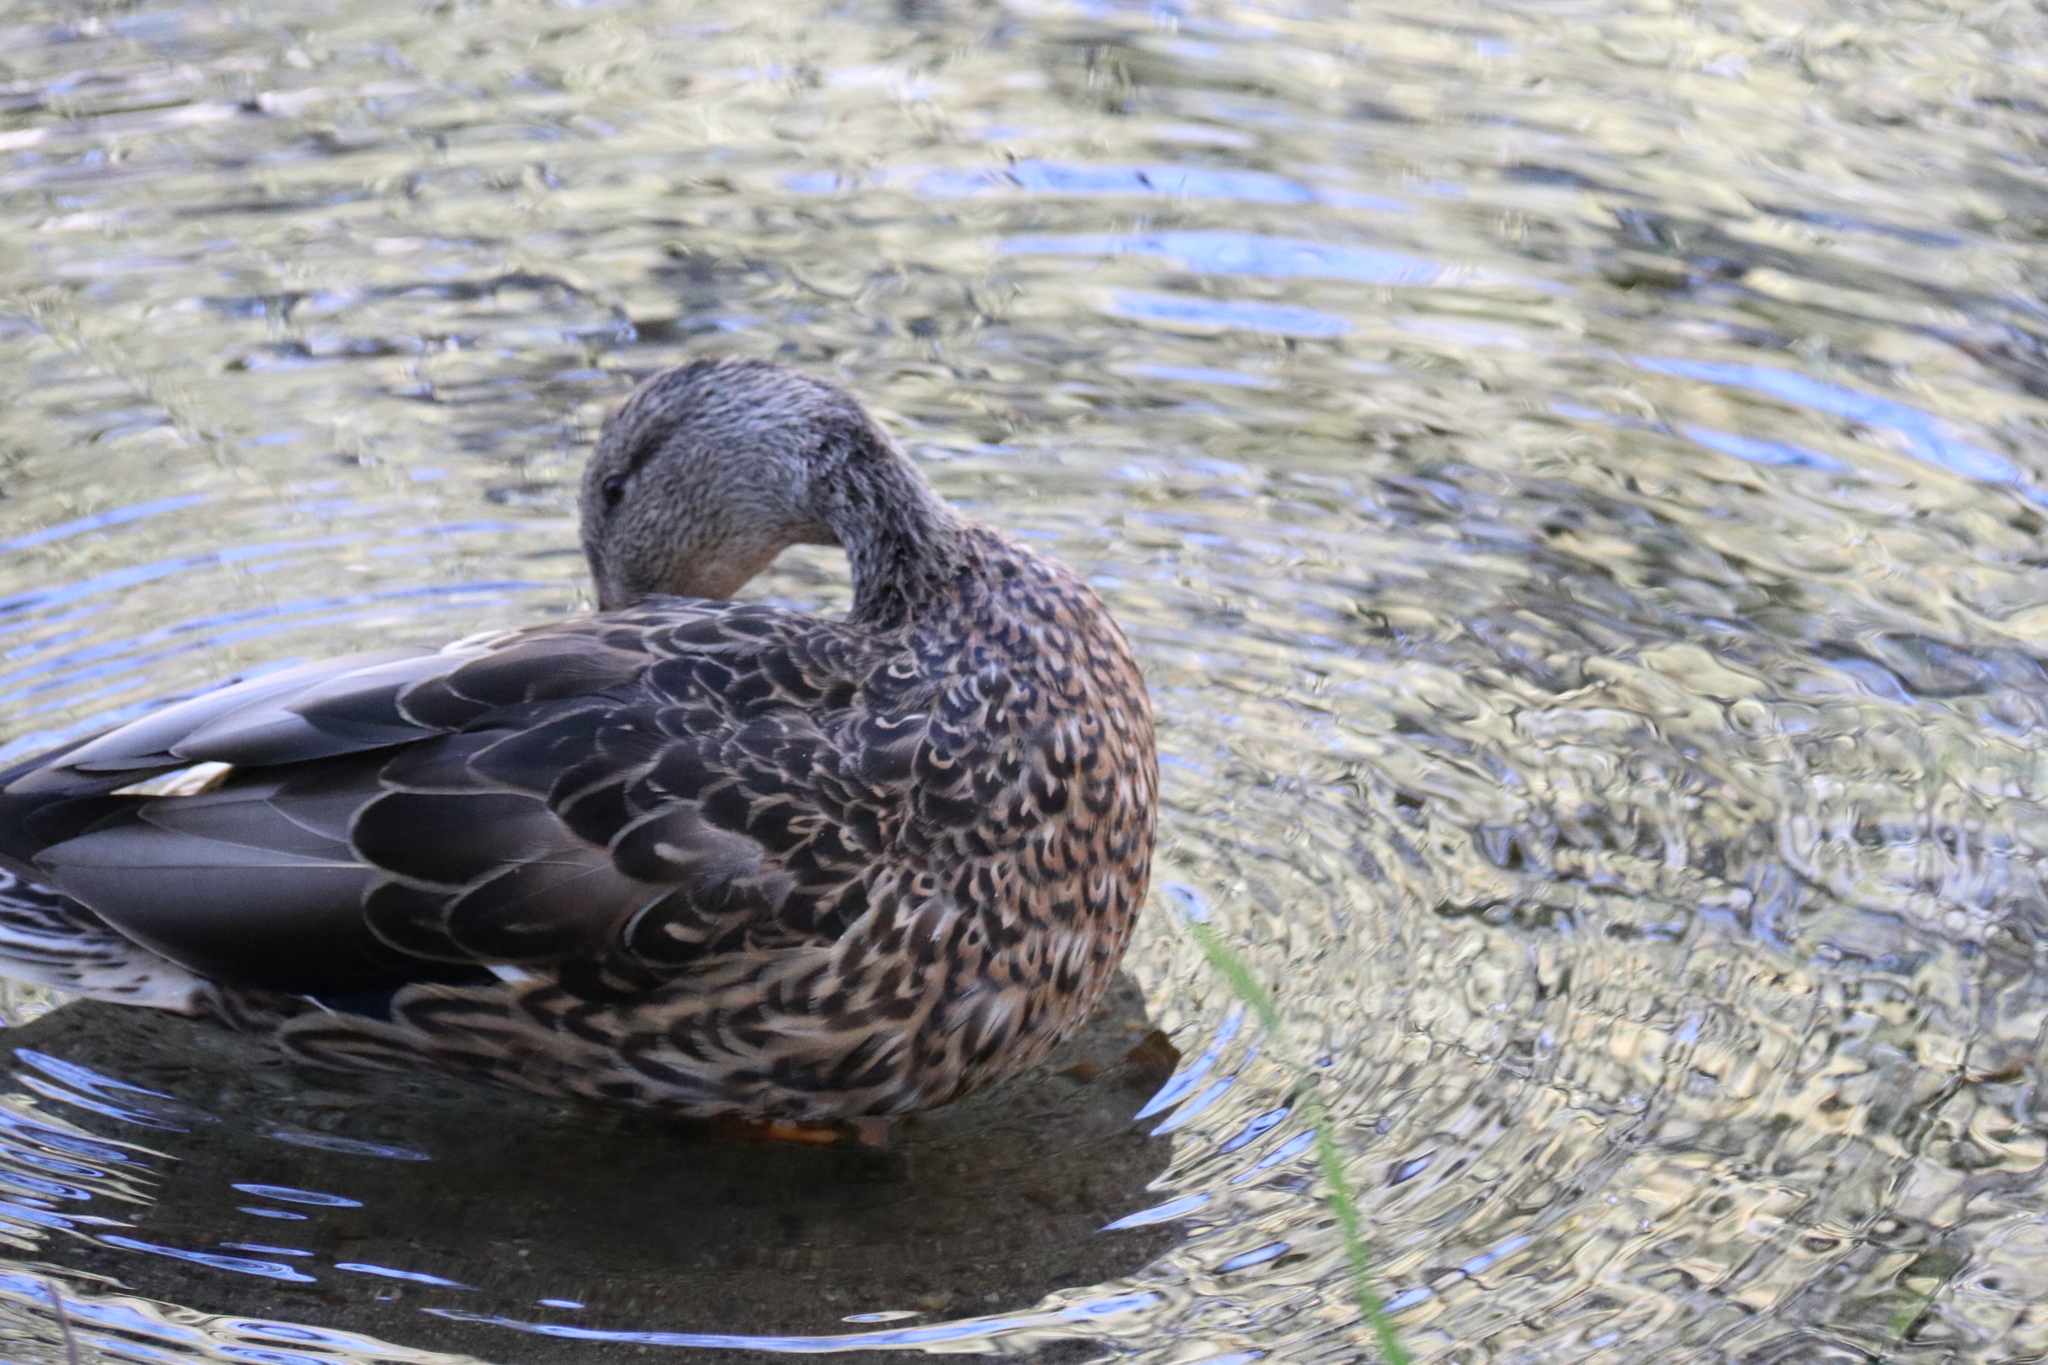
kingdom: Animalia
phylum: Chordata
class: Aves
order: Anseriformes
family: Anatidae
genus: Anas
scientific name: Anas platyrhynchos
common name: Mallard
